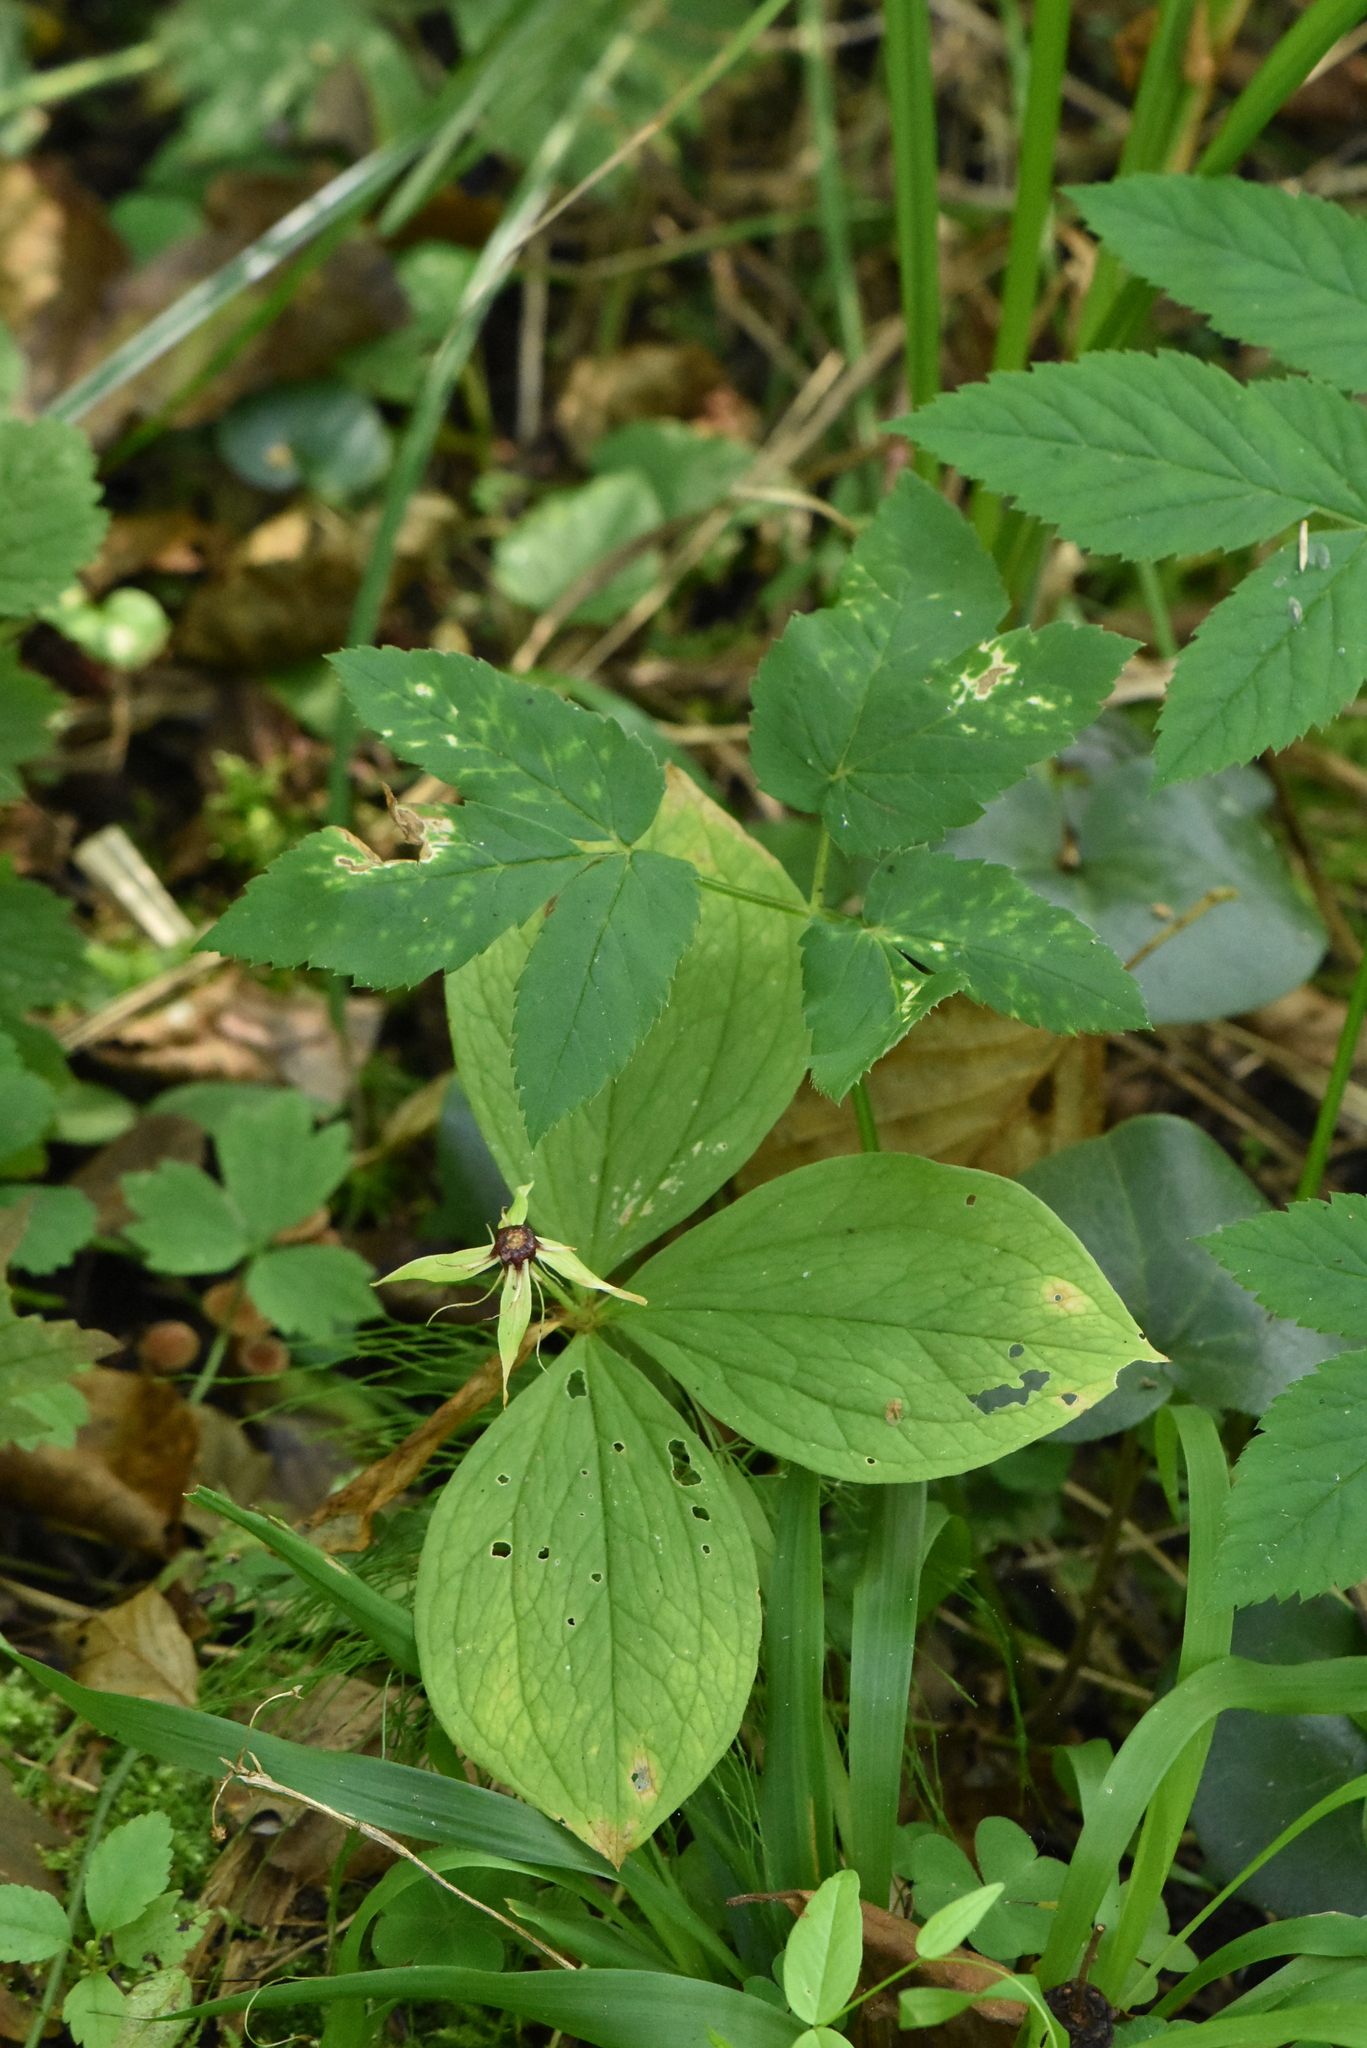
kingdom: Plantae
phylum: Tracheophyta
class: Liliopsida
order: Liliales
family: Melanthiaceae
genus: Paris
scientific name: Paris quadrifolia
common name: Herb-paris
